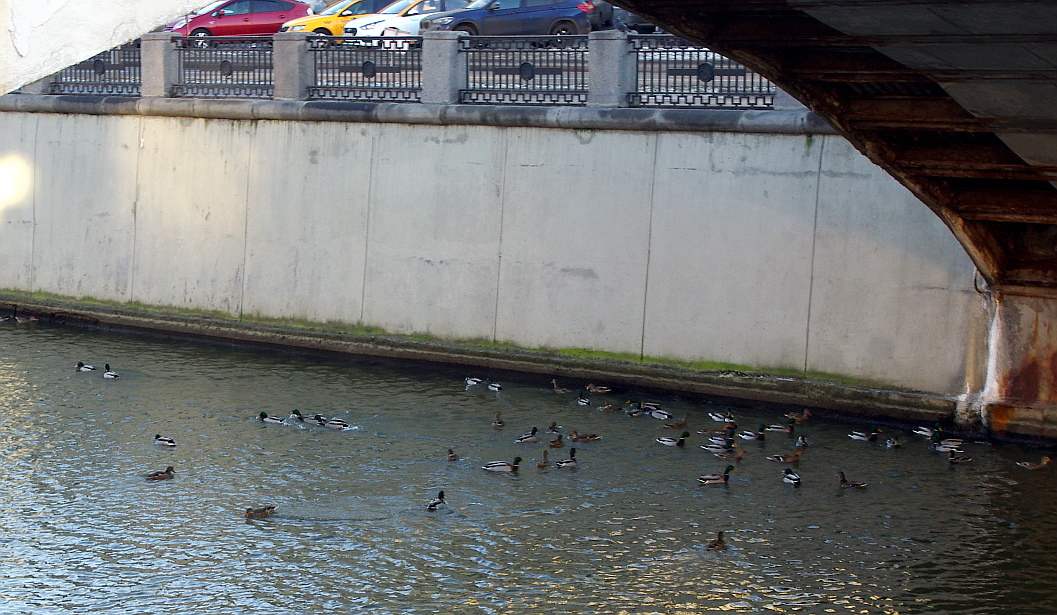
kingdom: Animalia
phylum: Chordata
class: Aves
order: Anseriformes
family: Anatidae
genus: Anas
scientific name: Anas platyrhynchos
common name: Mallard
